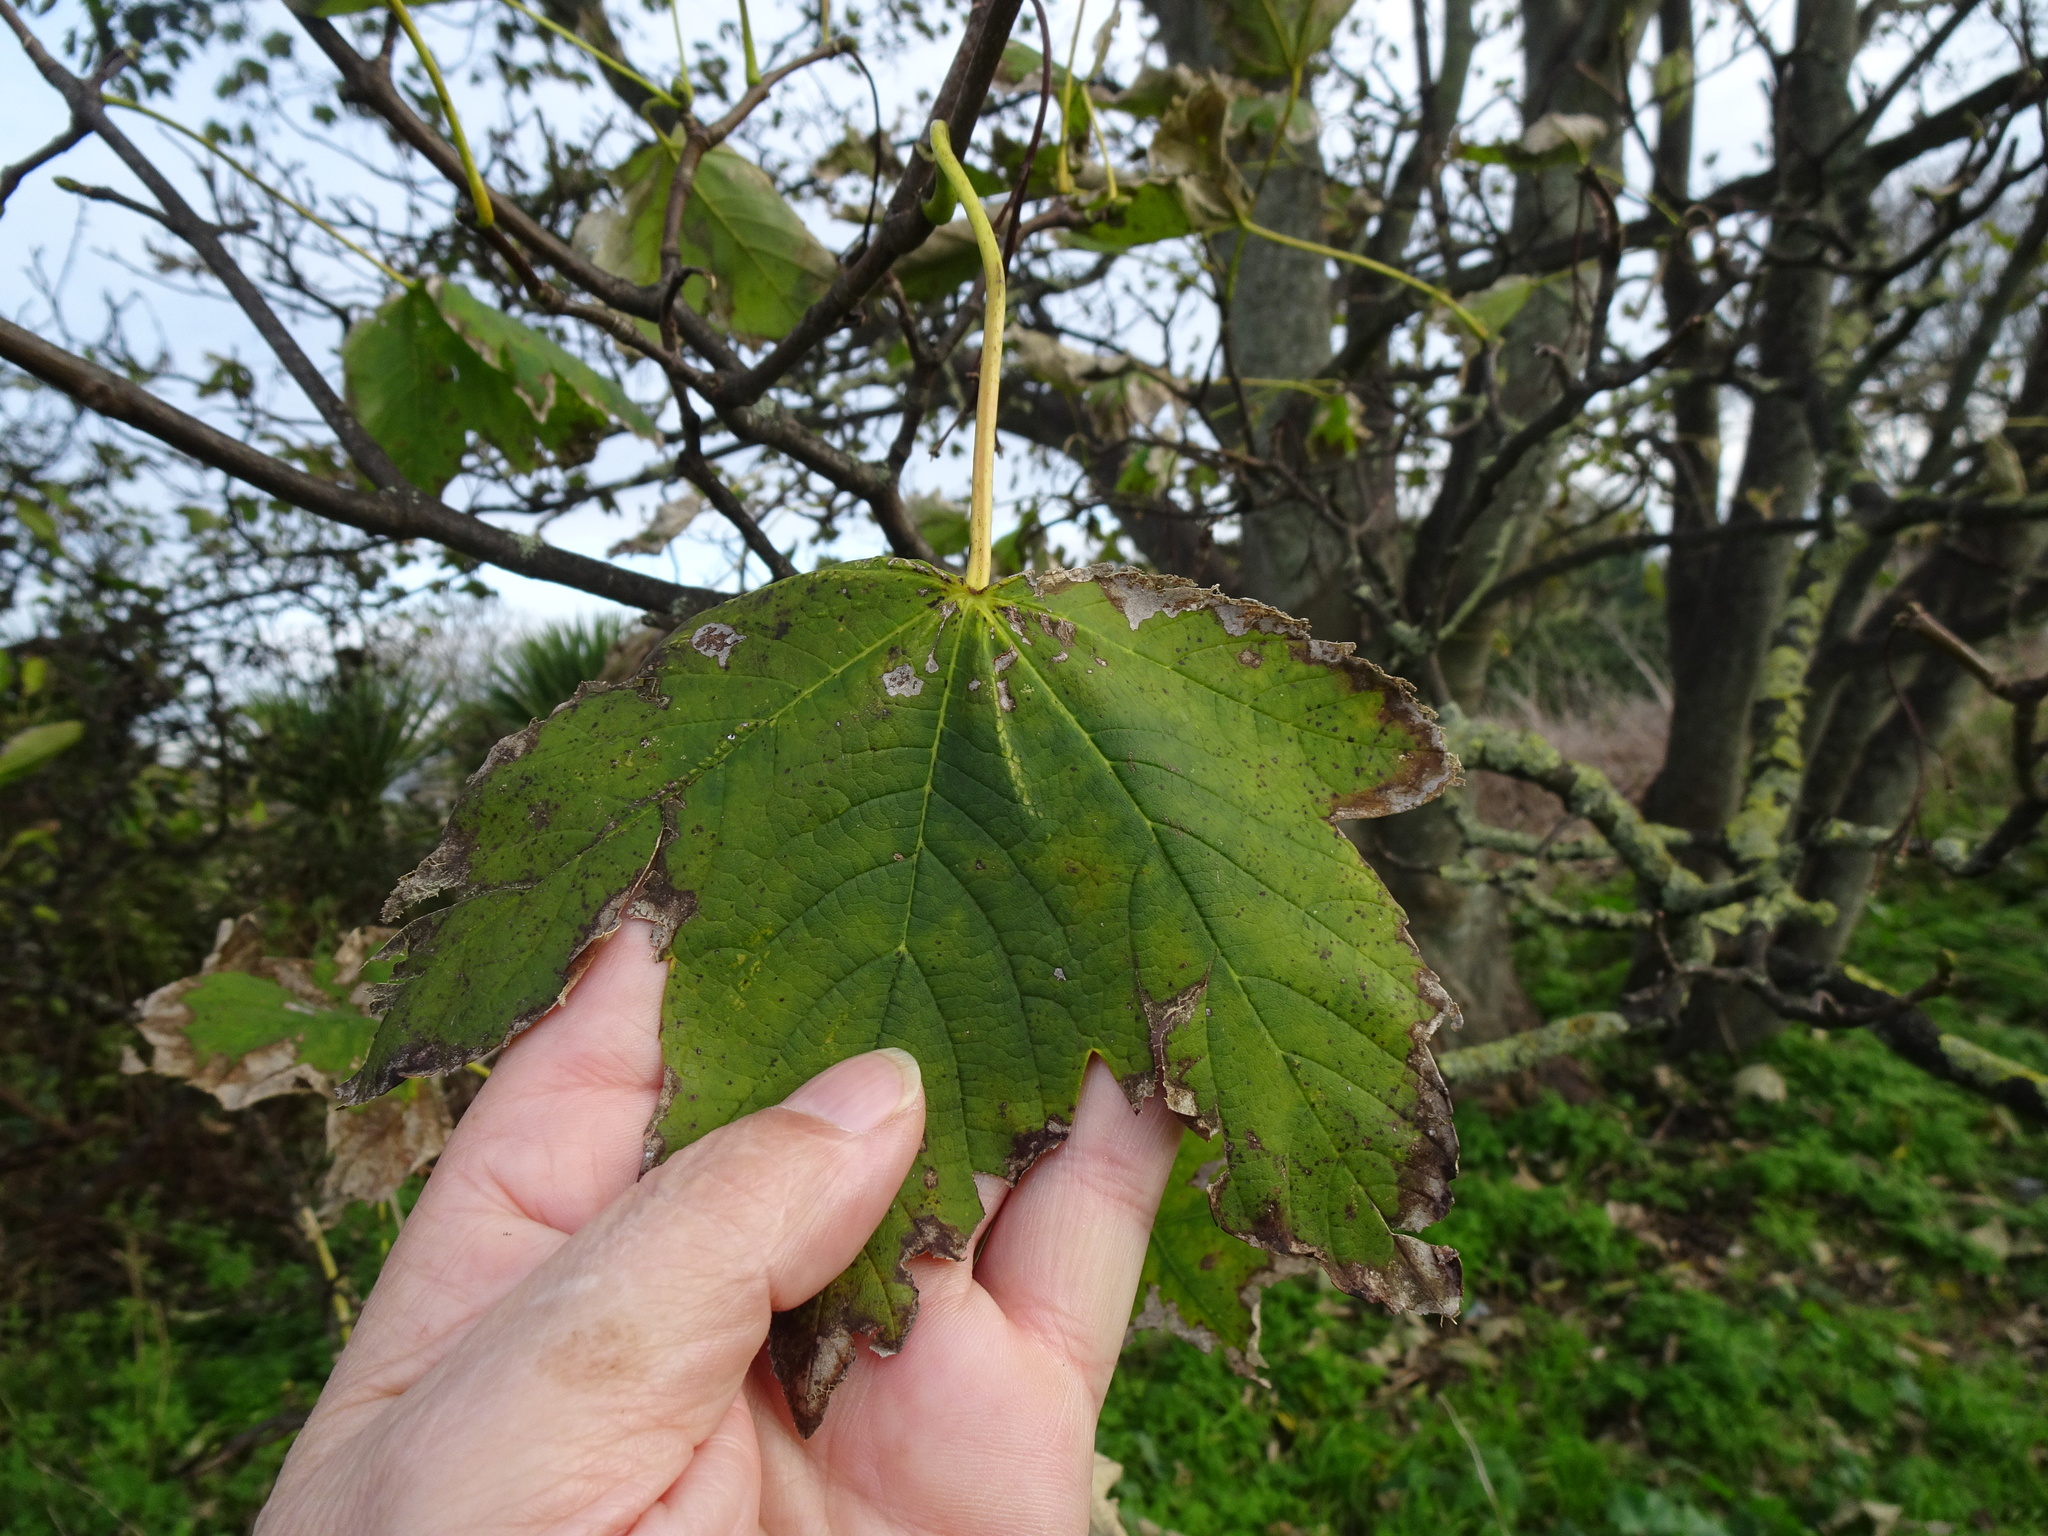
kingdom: Plantae
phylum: Tracheophyta
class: Magnoliopsida
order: Sapindales
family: Sapindaceae
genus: Acer
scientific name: Acer pseudoplatanus
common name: Sycamore
